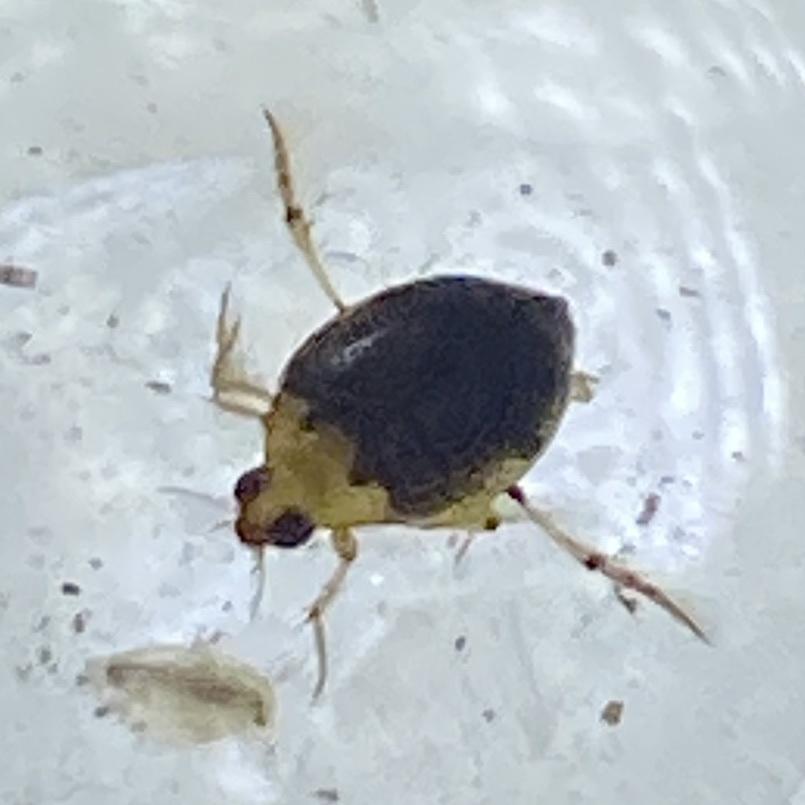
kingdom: Animalia
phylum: Arthropoda
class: Insecta
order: Coleoptera
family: Haliplidae
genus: Peltodytes
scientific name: Peltodytes
